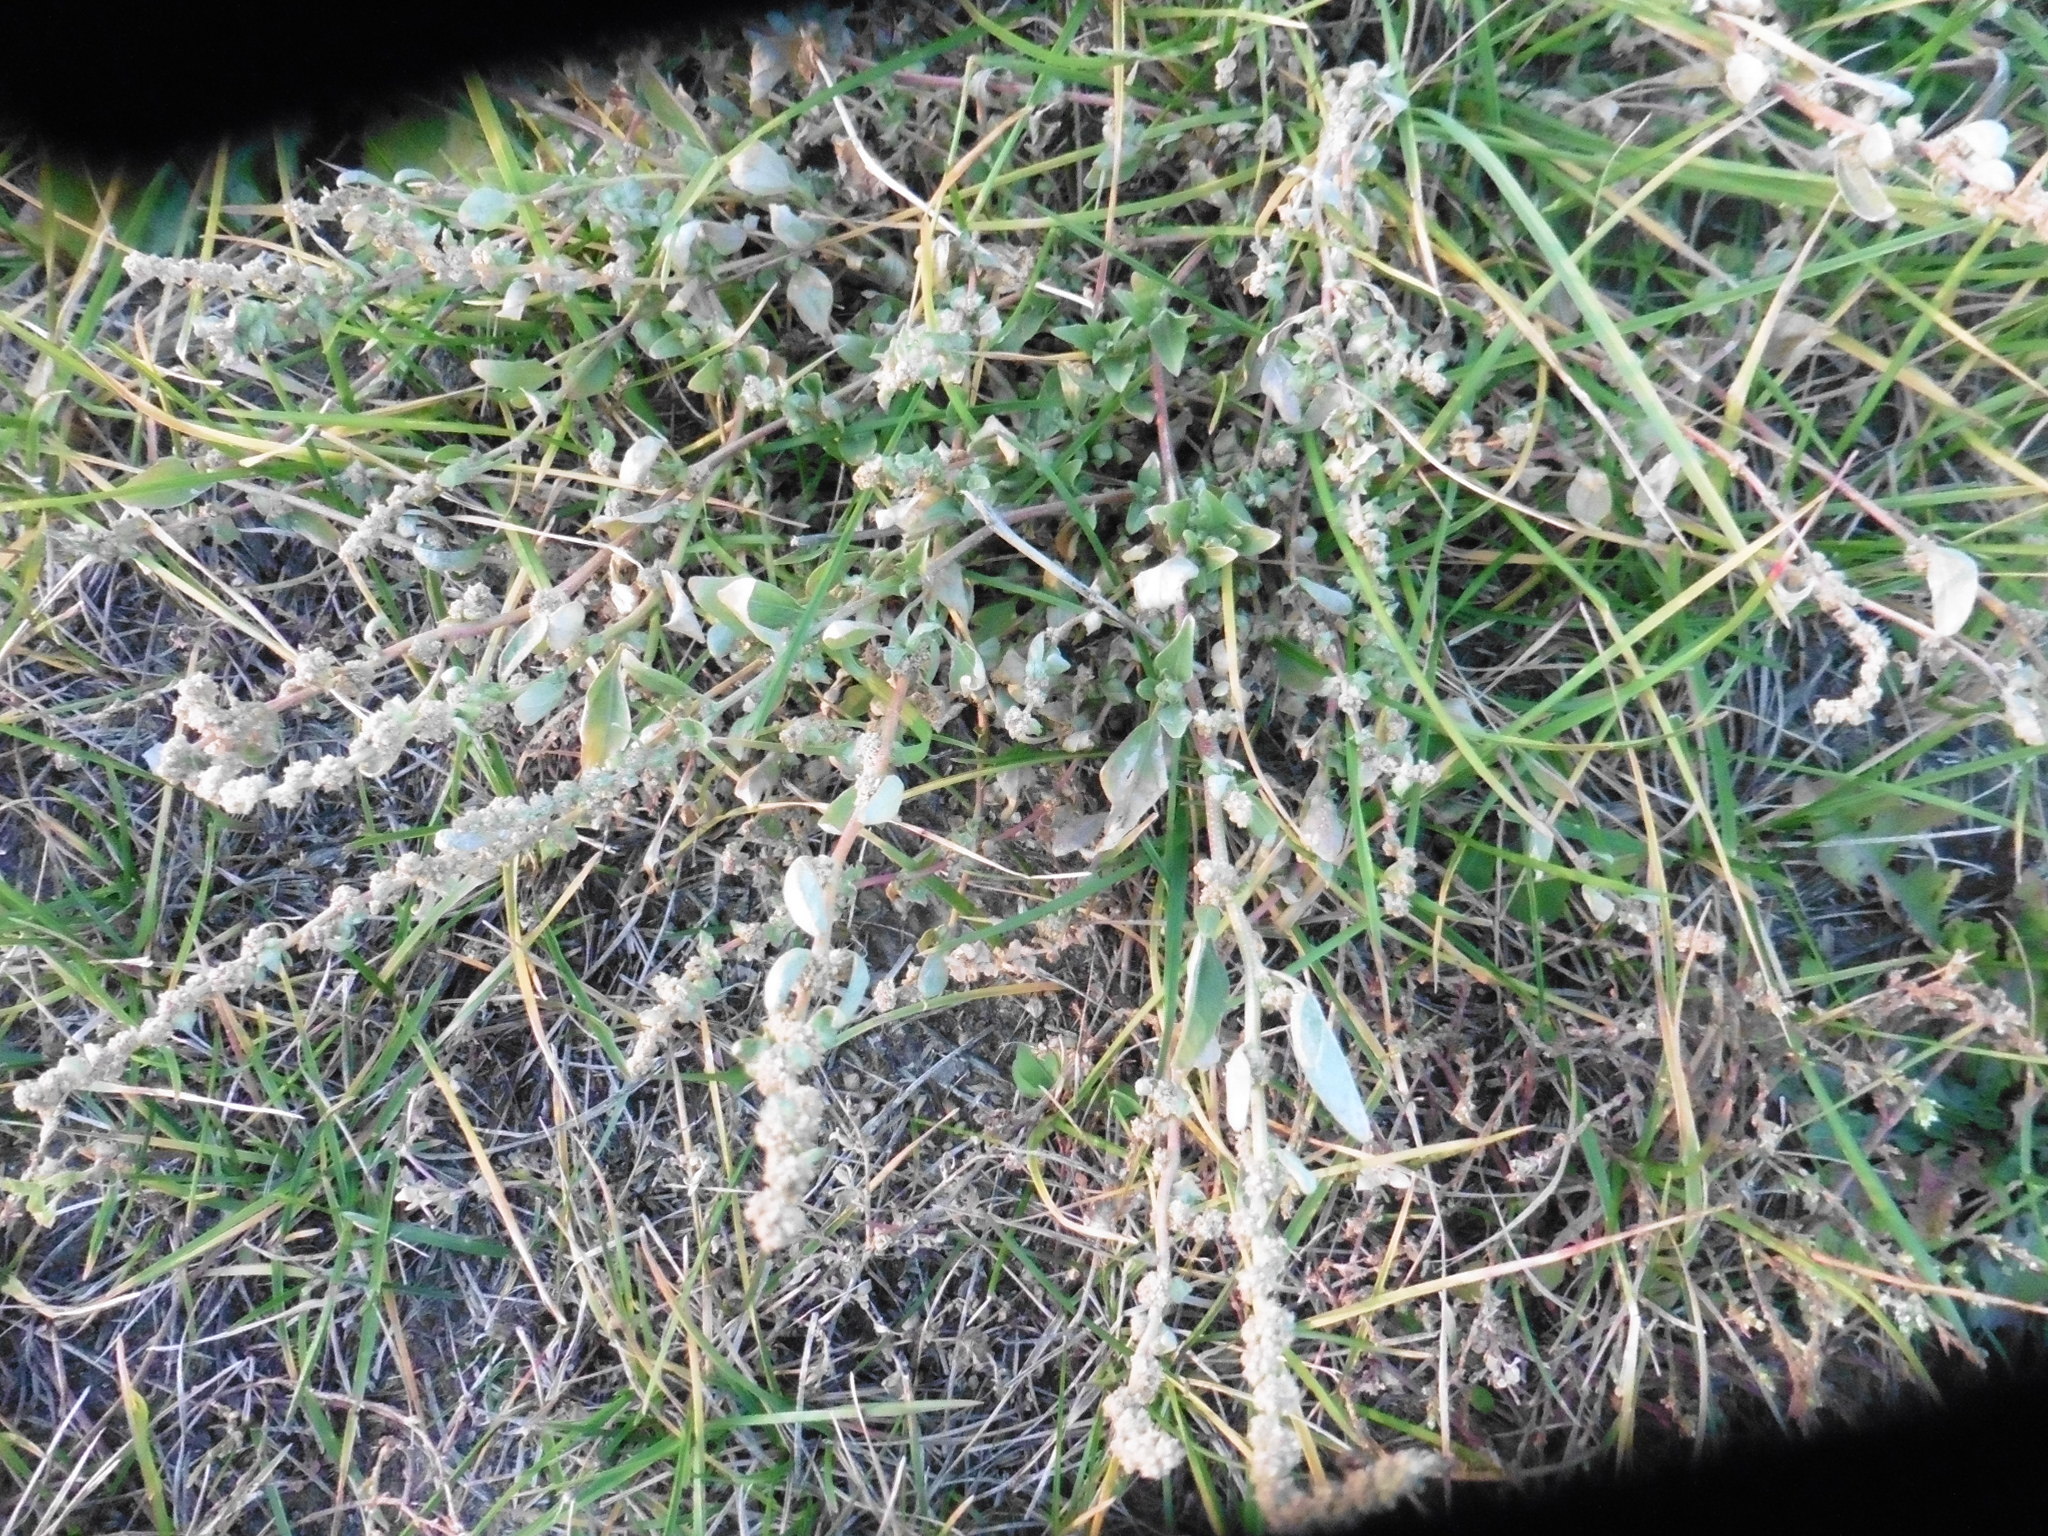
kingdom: Plantae
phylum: Tracheophyta
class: Magnoliopsida
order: Caryophyllales
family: Amaranthaceae
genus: Atriplex
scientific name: Atriplex tatarica
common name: Tatarian orache
